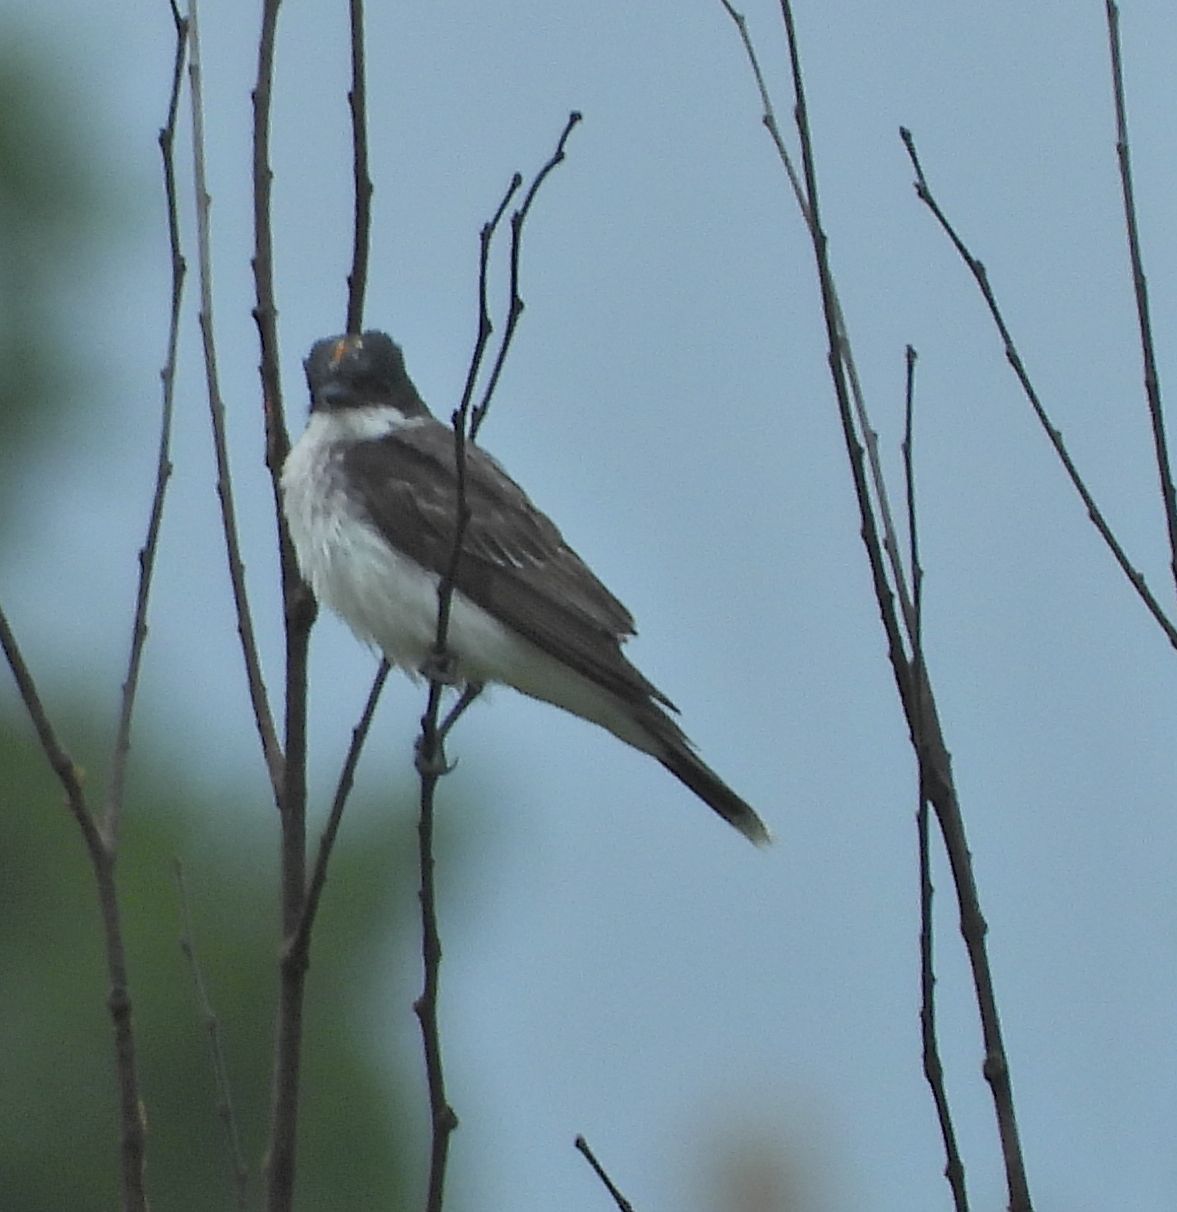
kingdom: Animalia
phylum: Chordata
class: Aves
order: Passeriformes
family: Tyrannidae
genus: Tyrannus
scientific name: Tyrannus tyrannus
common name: Eastern kingbird
